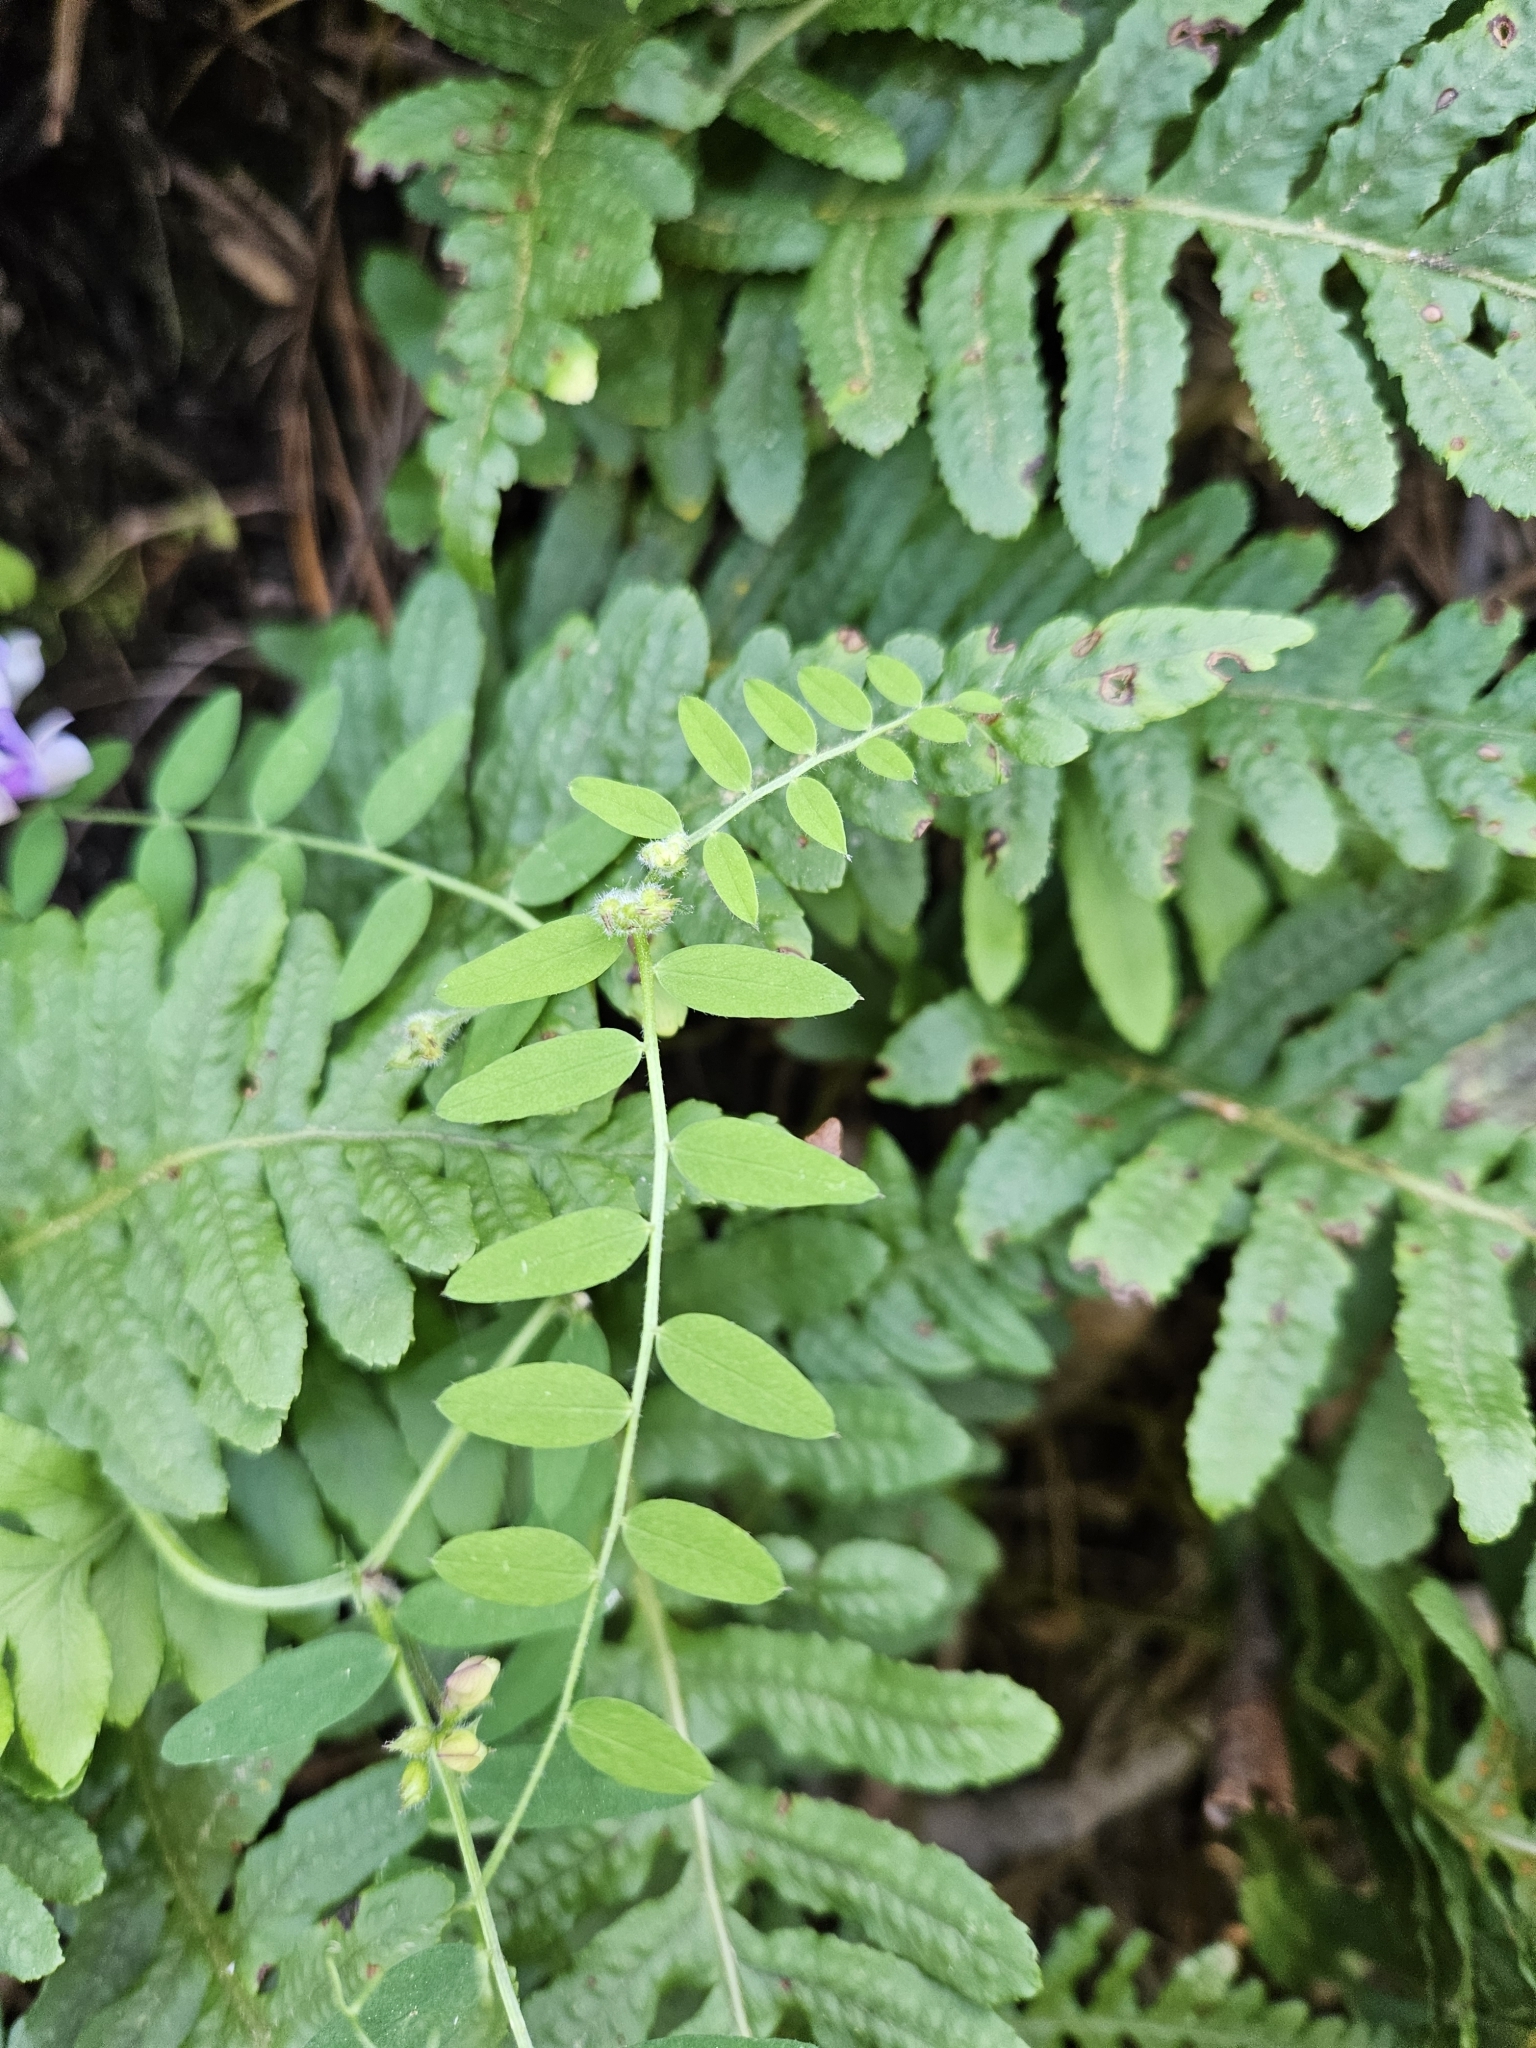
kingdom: Plantae
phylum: Tracheophyta
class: Magnoliopsida
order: Fabales
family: Fabaceae
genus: Vicia
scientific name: Vicia americana
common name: American vetch
